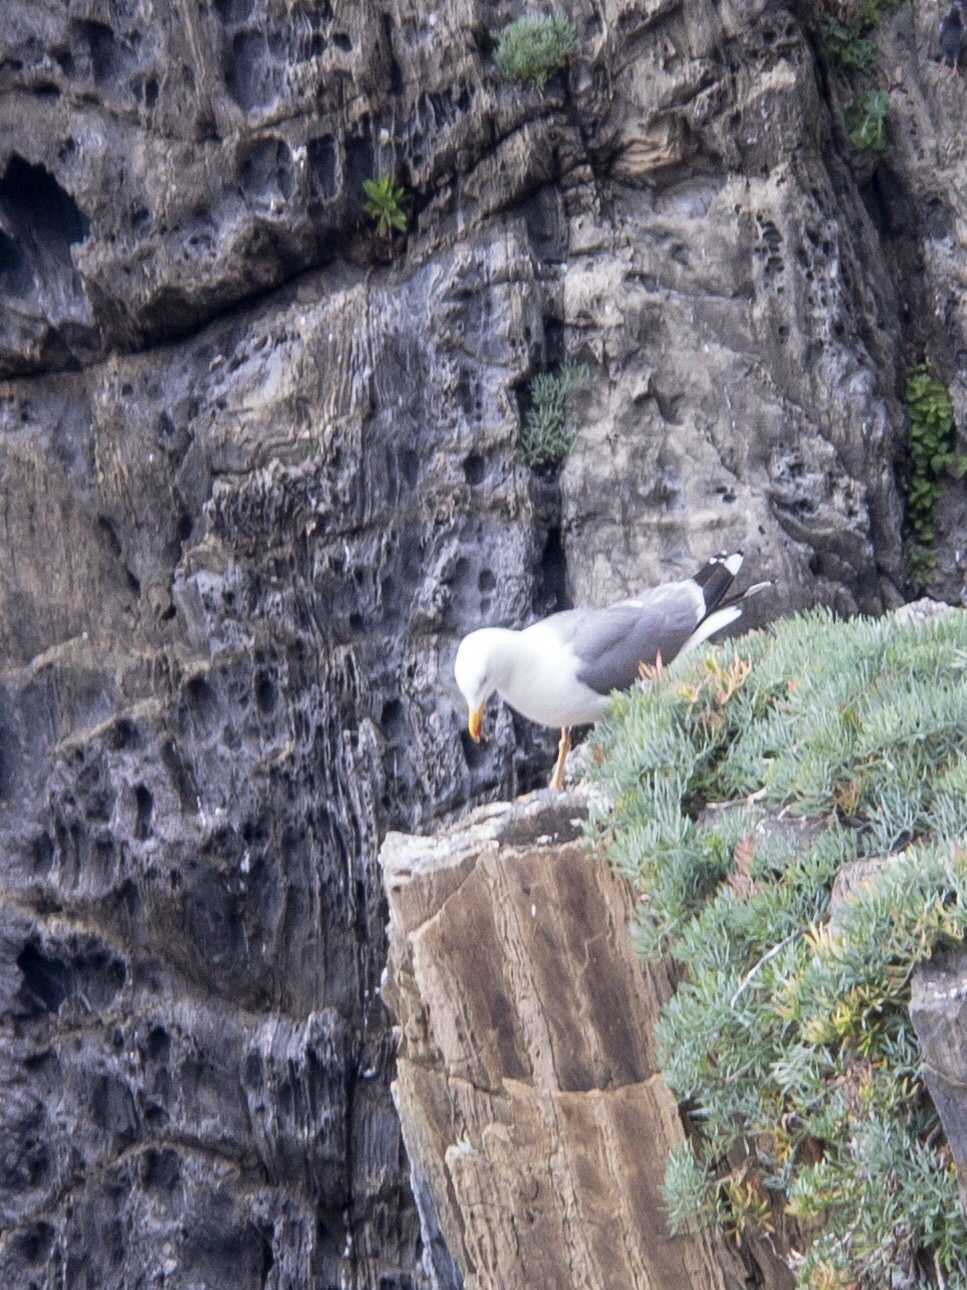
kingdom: Animalia
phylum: Chordata
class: Aves
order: Charadriiformes
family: Laridae
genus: Larus
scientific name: Larus michahellis
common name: Yellow-legged gull
